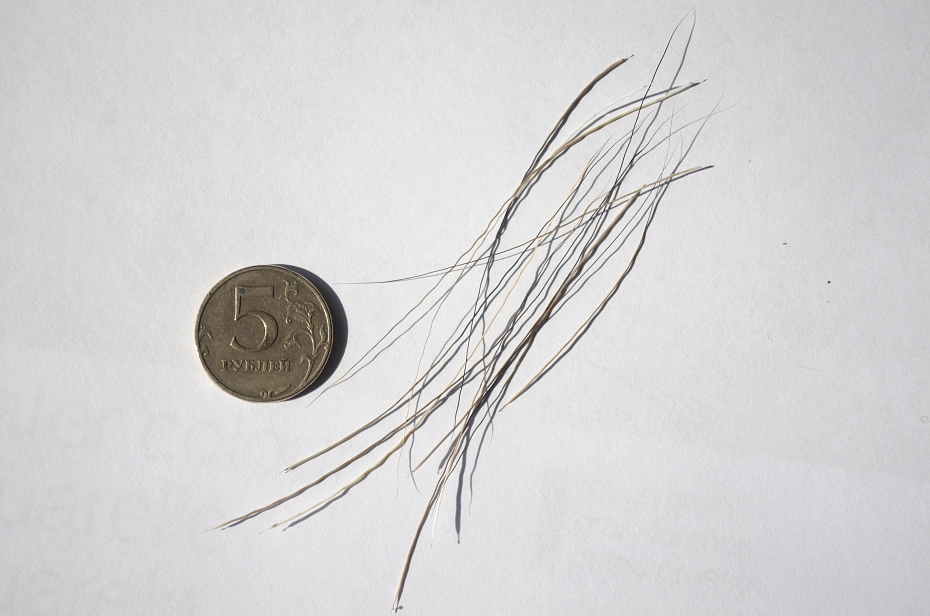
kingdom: Animalia
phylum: Chordata
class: Mammalia
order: Artiodactyla
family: Cervidae
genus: Alces
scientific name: Alces alces
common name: Moose
